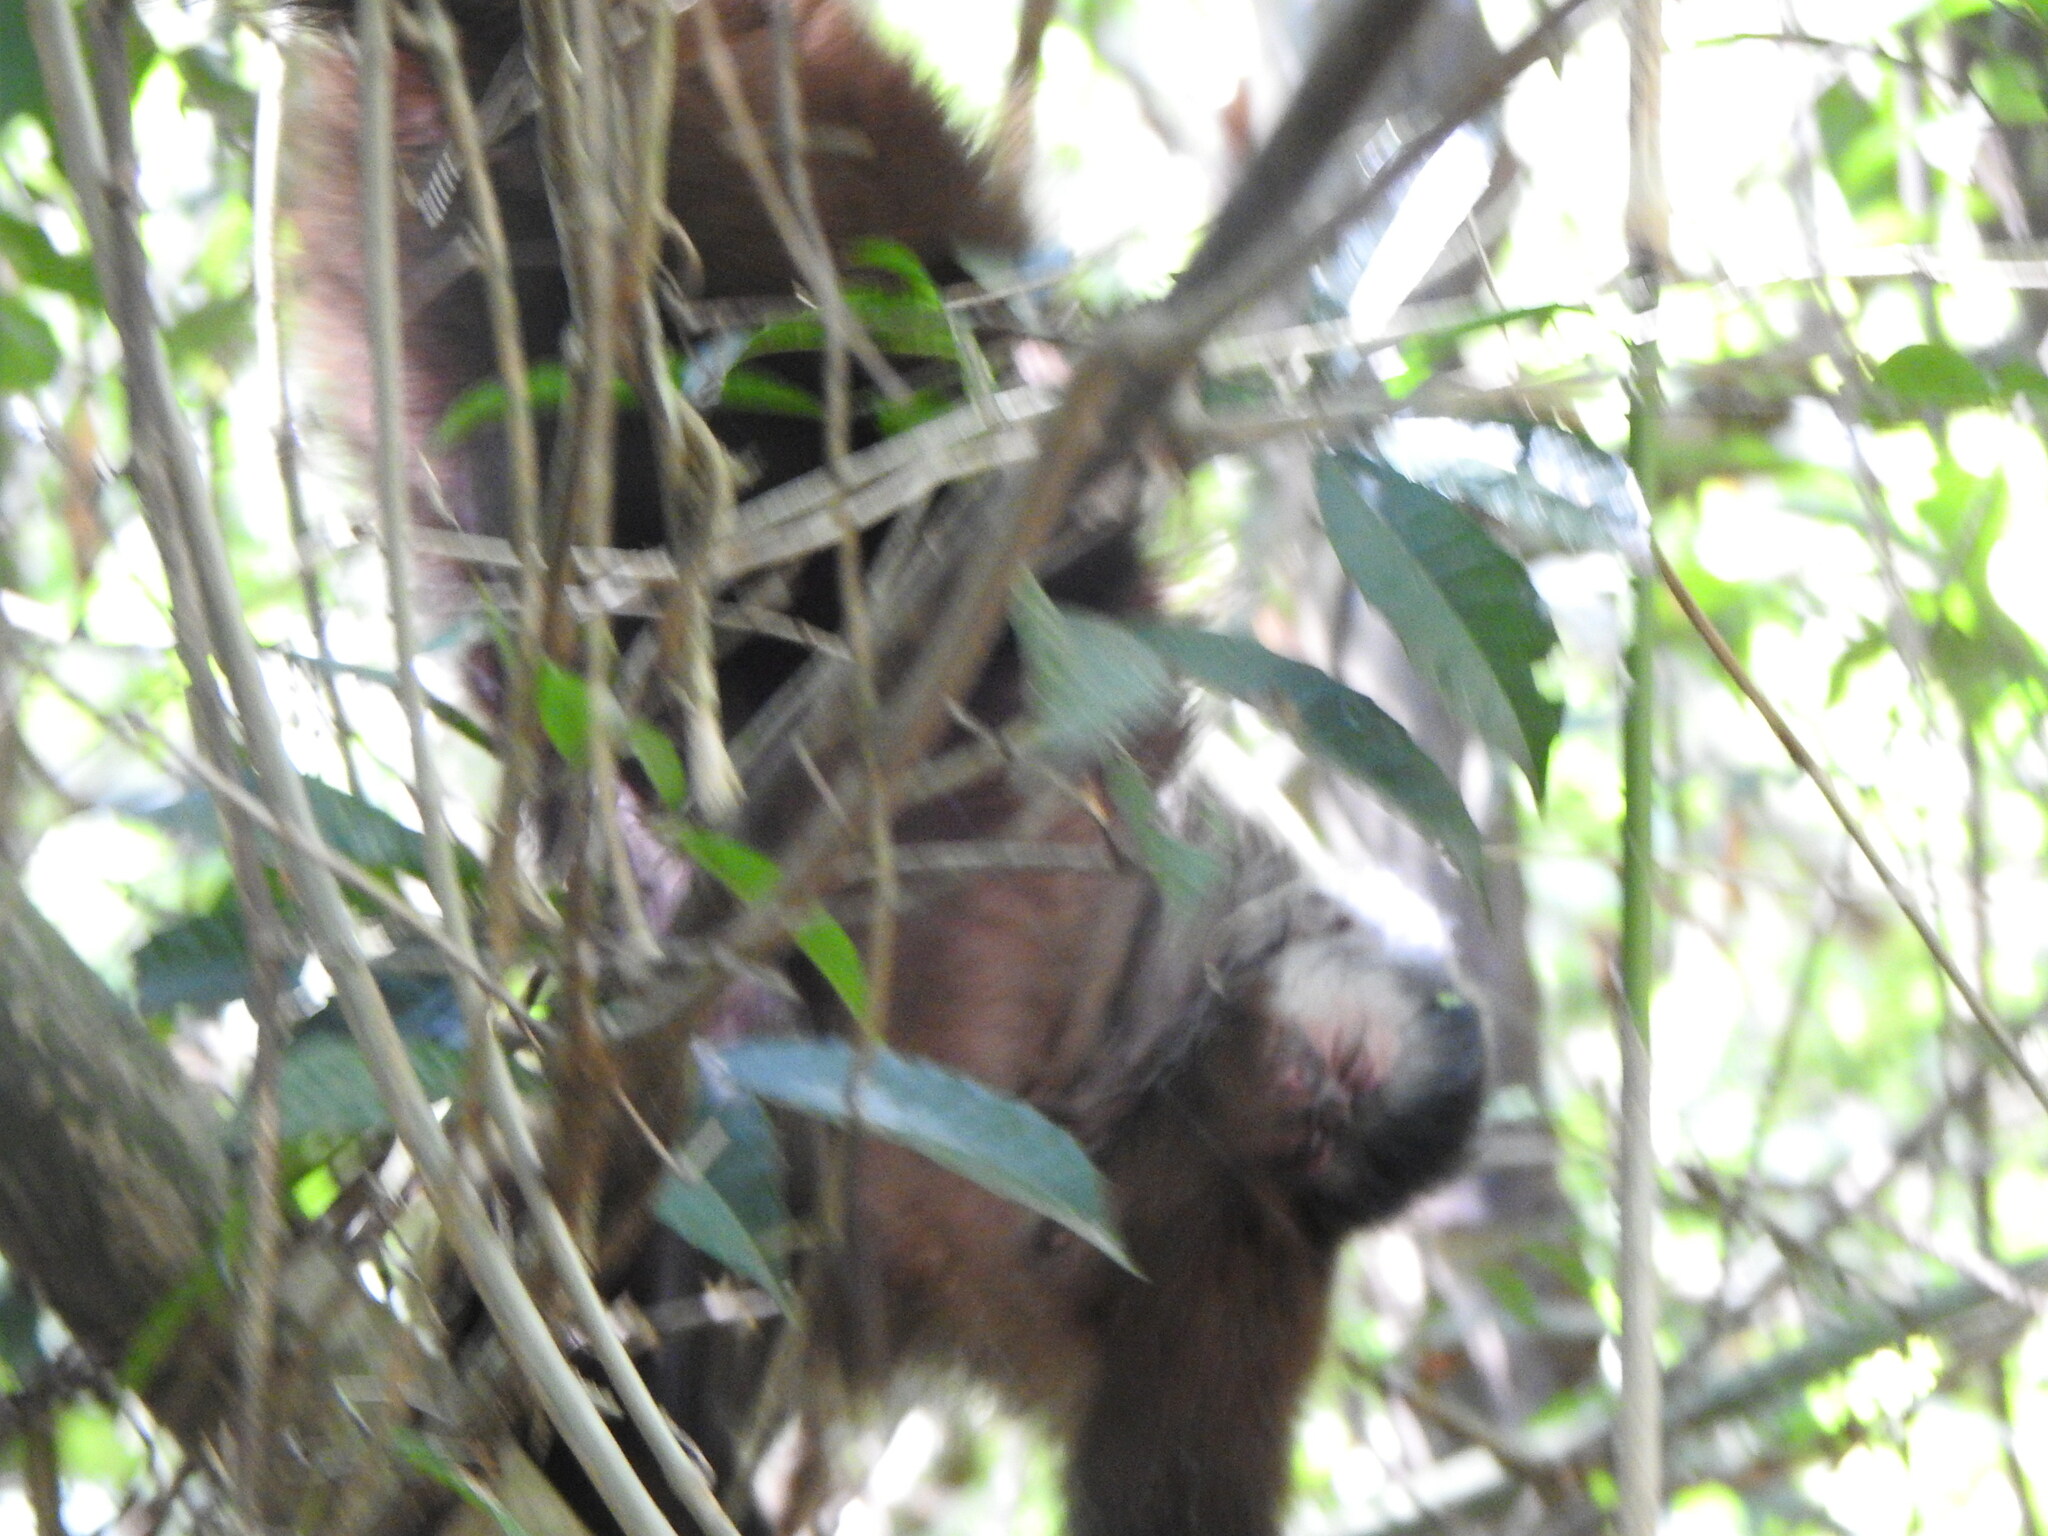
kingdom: Animalia
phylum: Chordata
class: Mammalia
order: Primates
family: Cebidae
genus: Sapajus
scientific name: Sapajus nigritus
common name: Black capuchin
